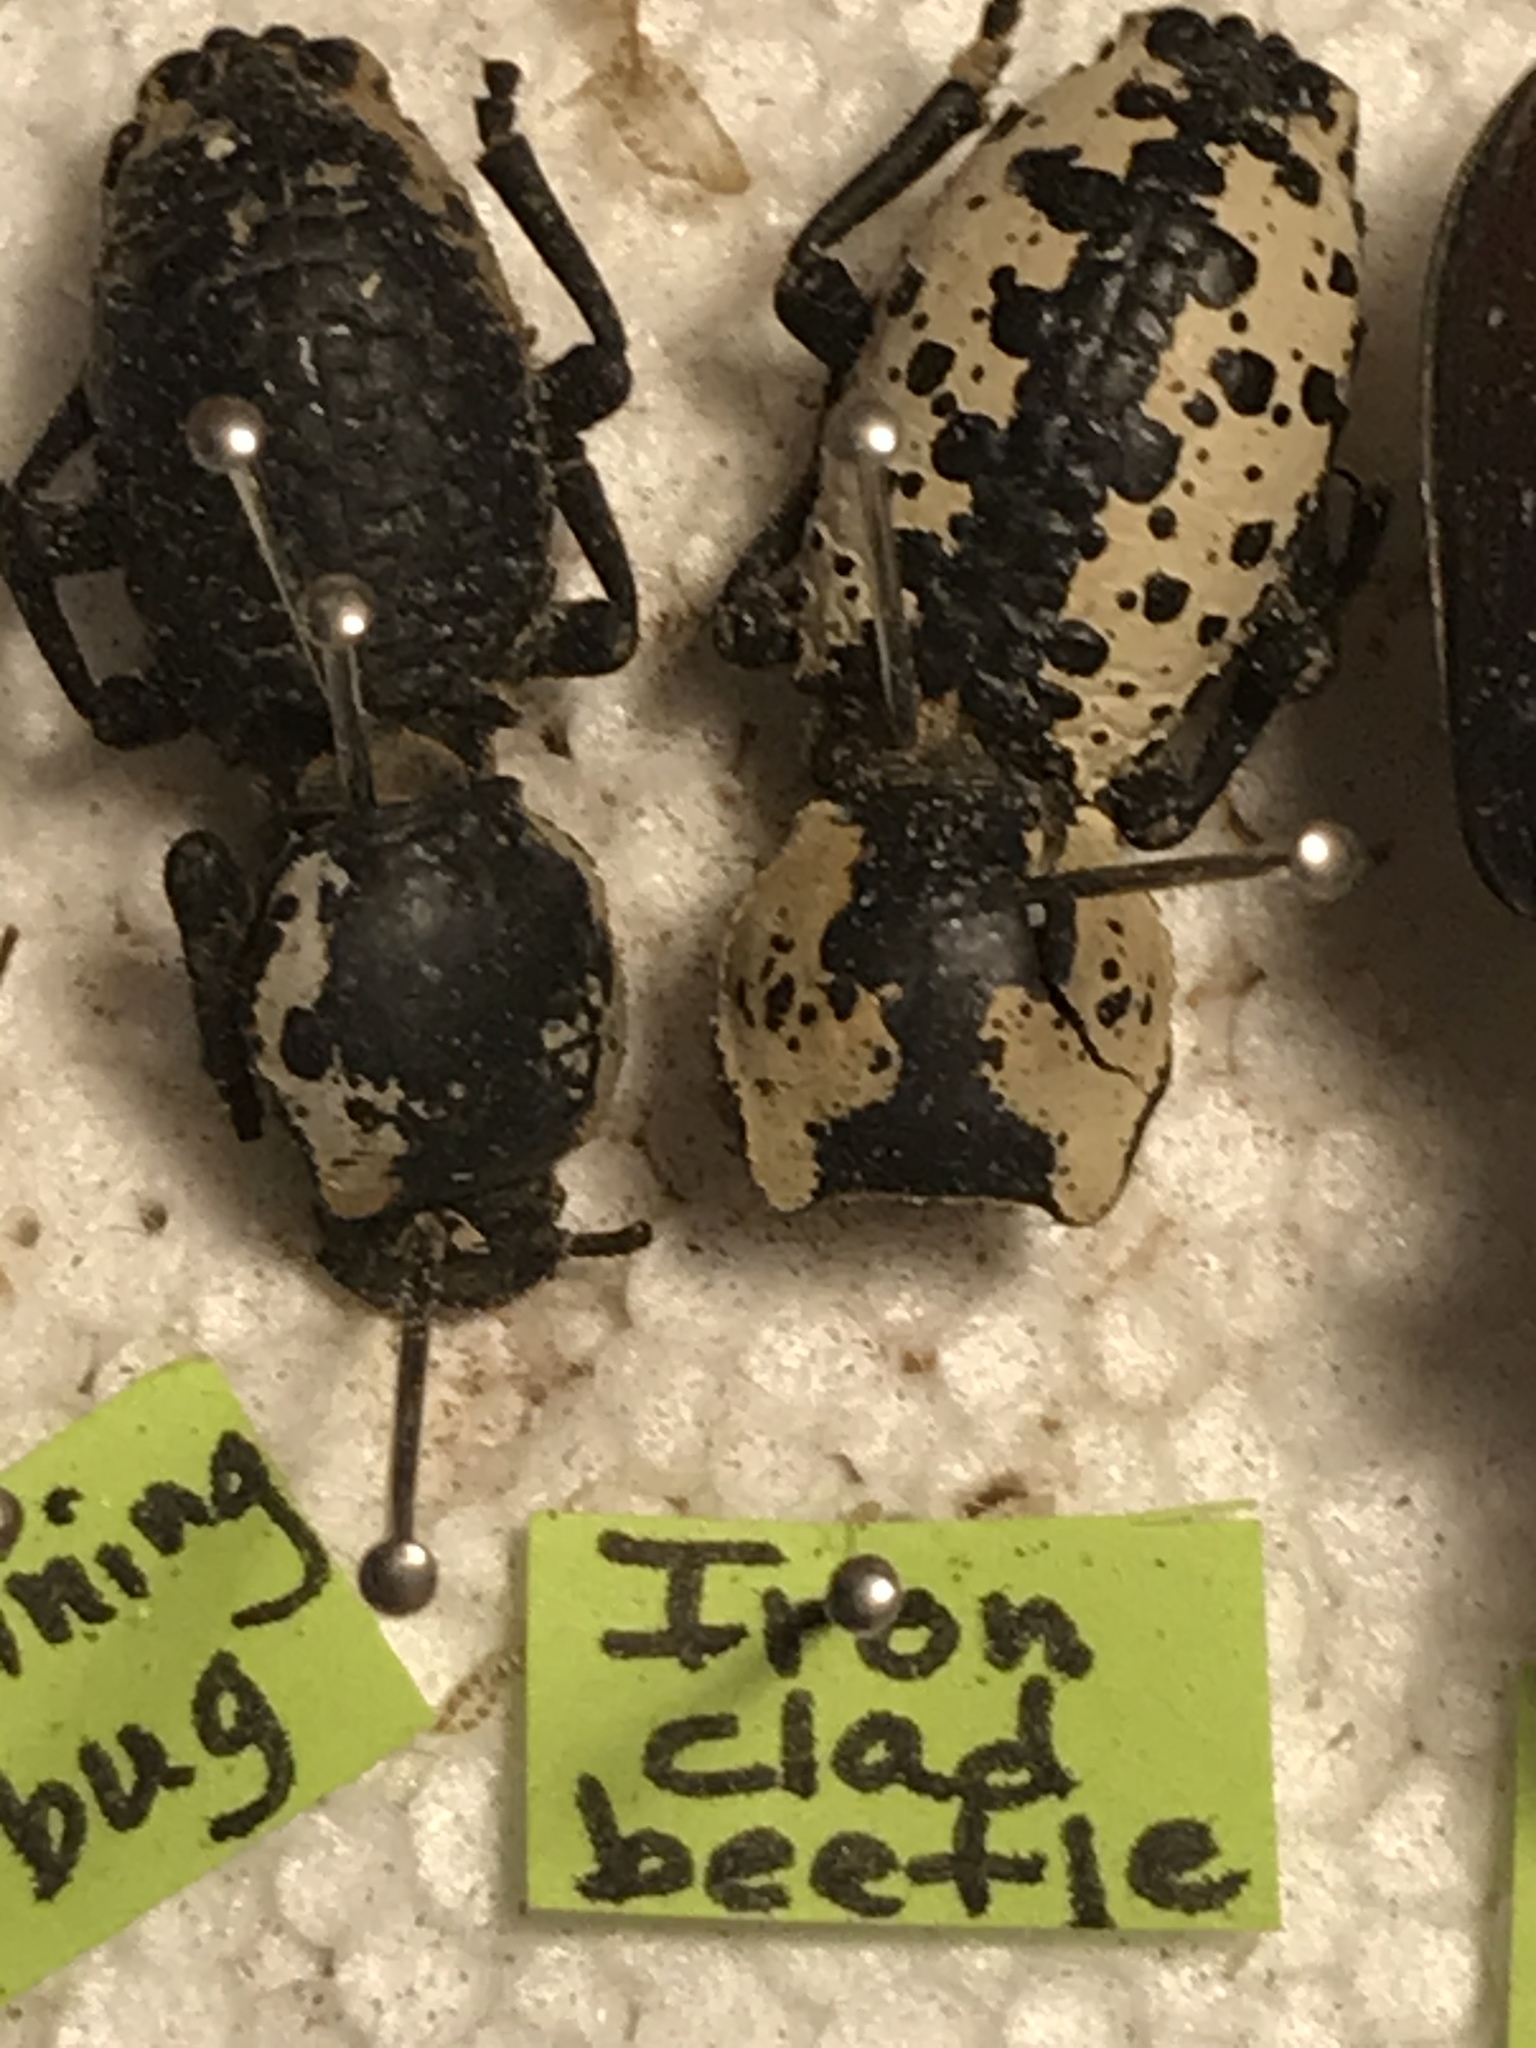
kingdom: Animalia
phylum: Arthropoda
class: Insecta
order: Coleoptera
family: Zopheridae
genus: Zopherus
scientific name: Zopherus nodulosus
